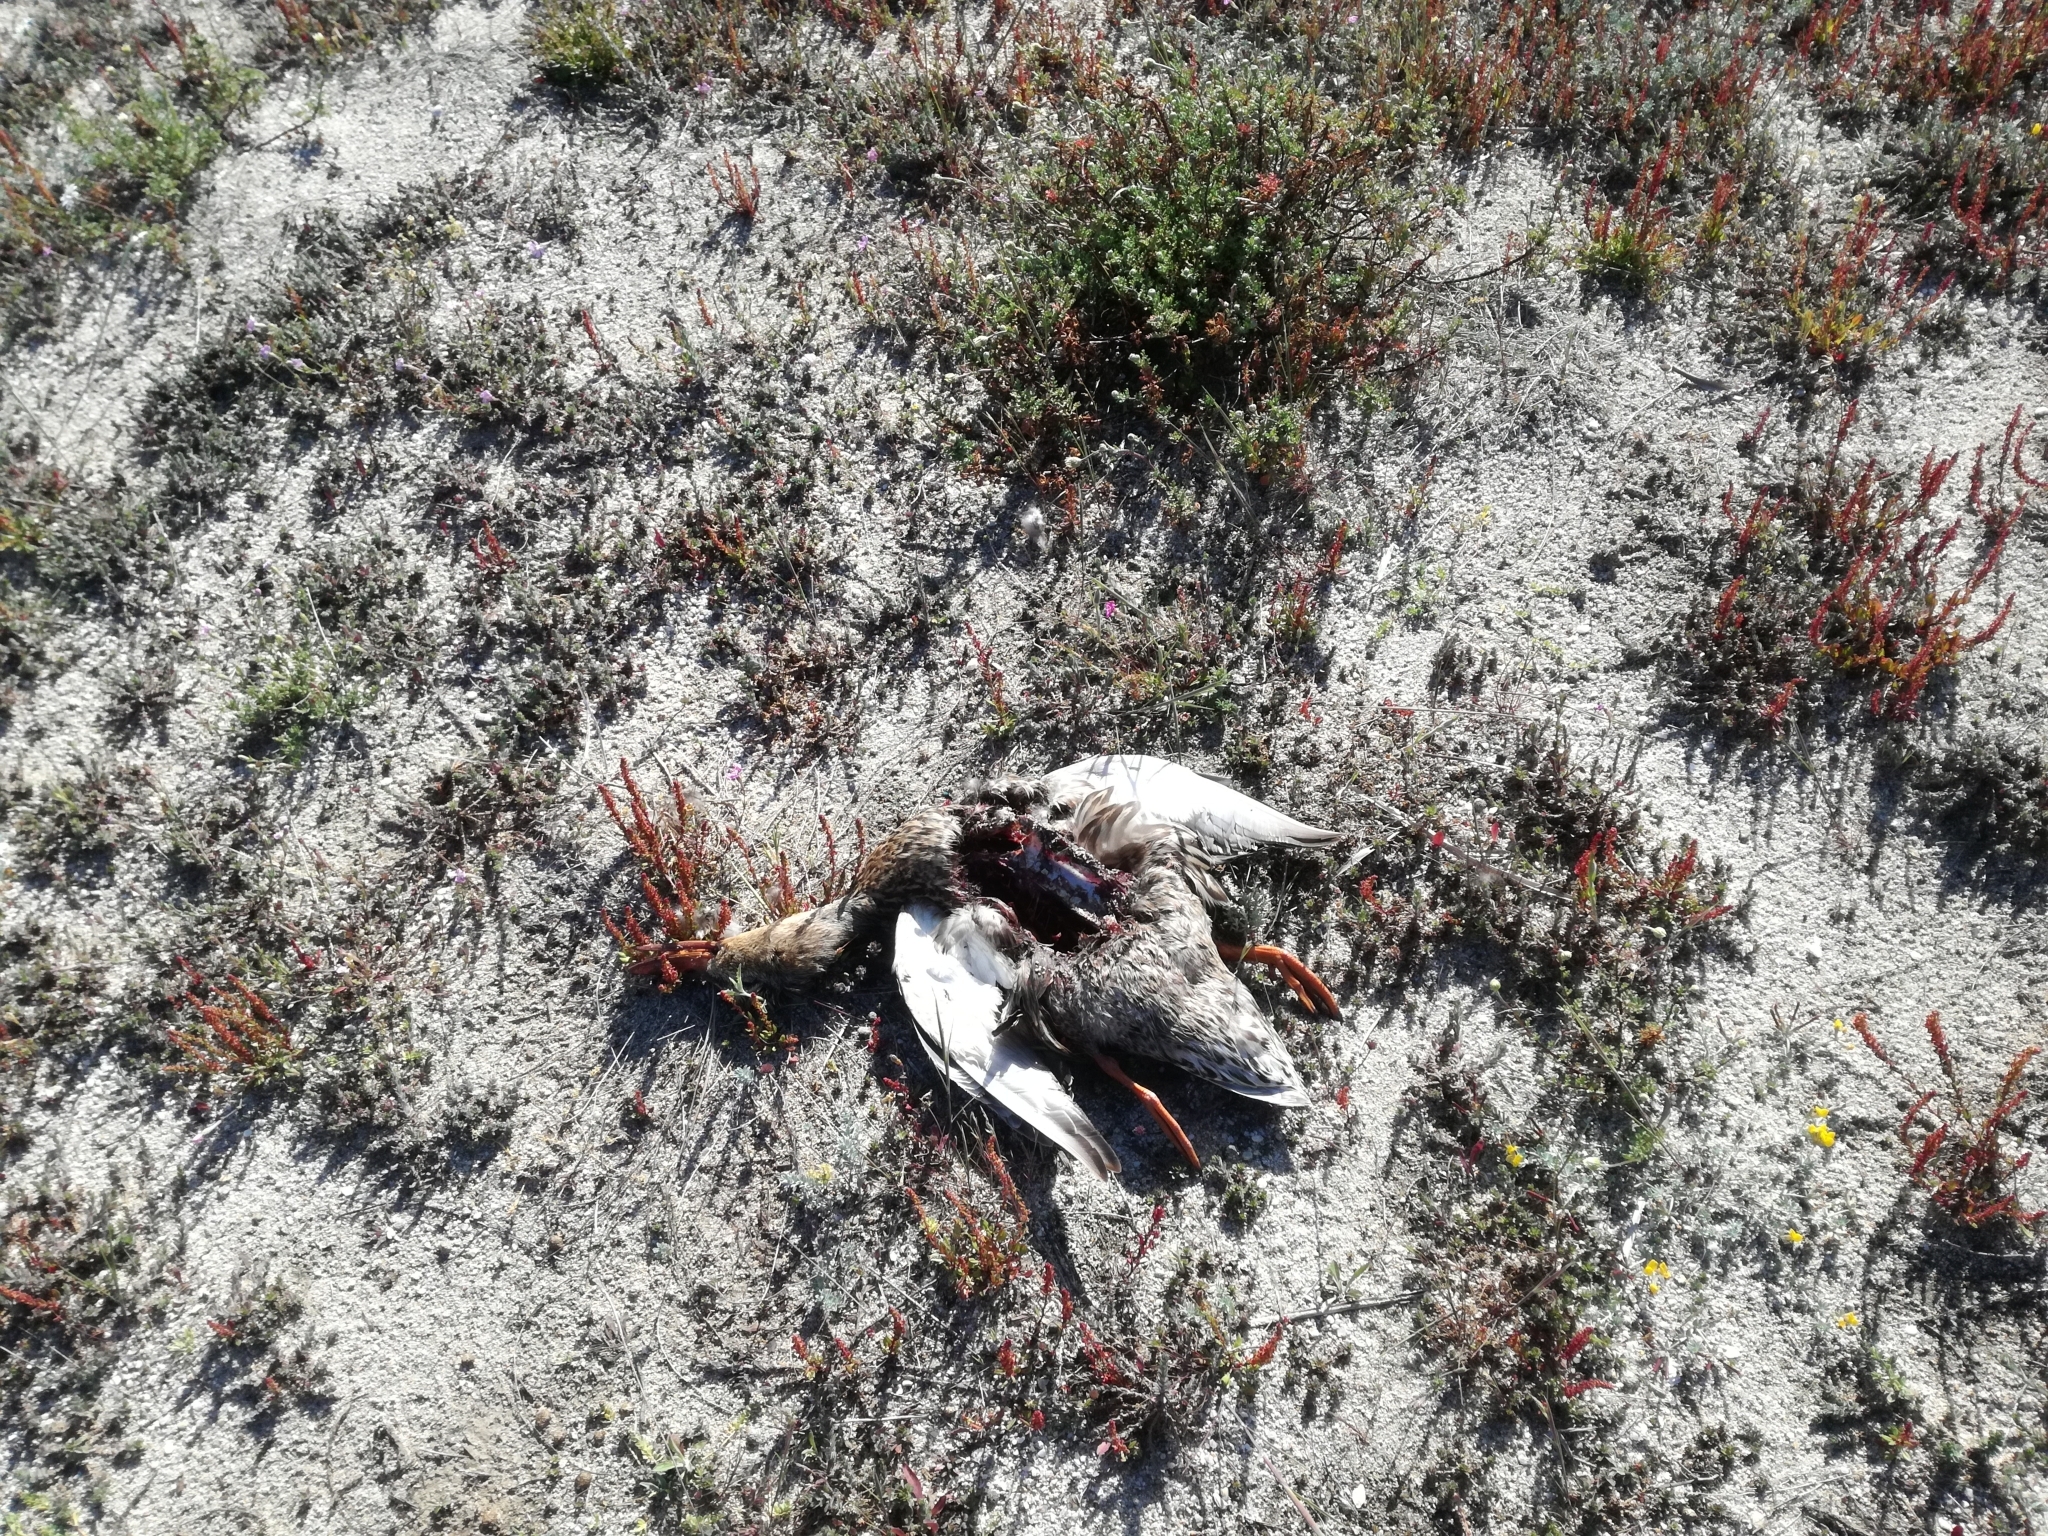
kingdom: Animalia
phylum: Chordata
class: Aves
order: Anseriformes
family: Anatidae
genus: Anas
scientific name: Anas platyrhynchos
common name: Mallard
